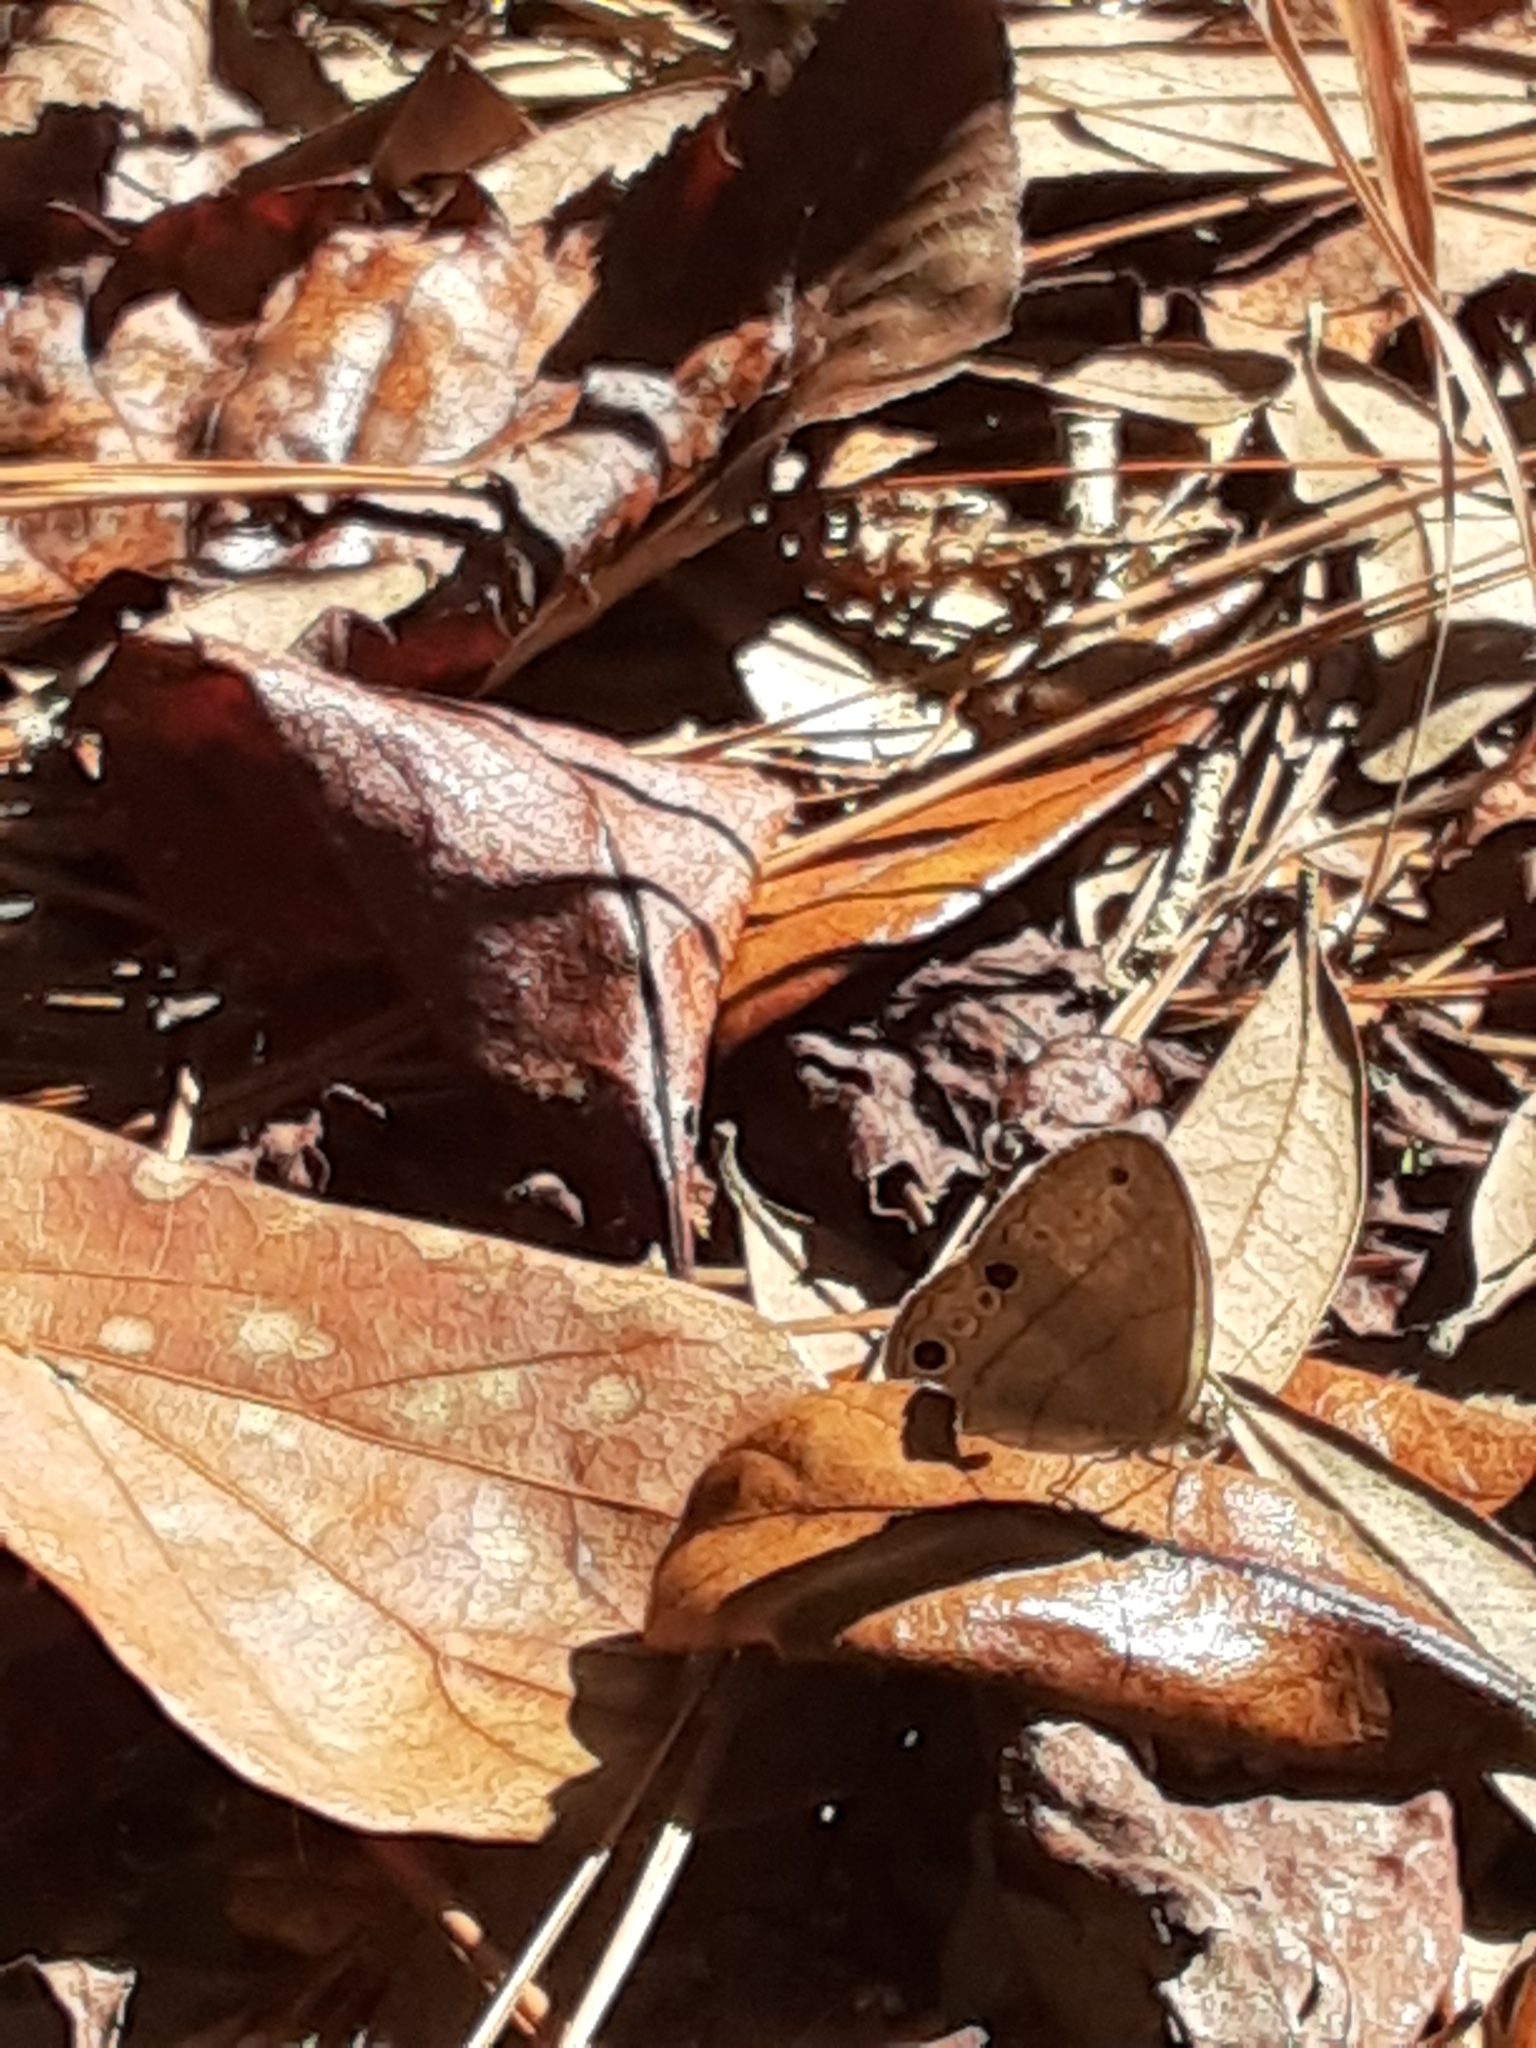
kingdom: Animalia
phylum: Arthropoda
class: Insecta
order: Lepidoptera
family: Nymphalidae
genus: Hermeuptychia
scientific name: Hermeuptychia intricata
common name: Intricate satyr
